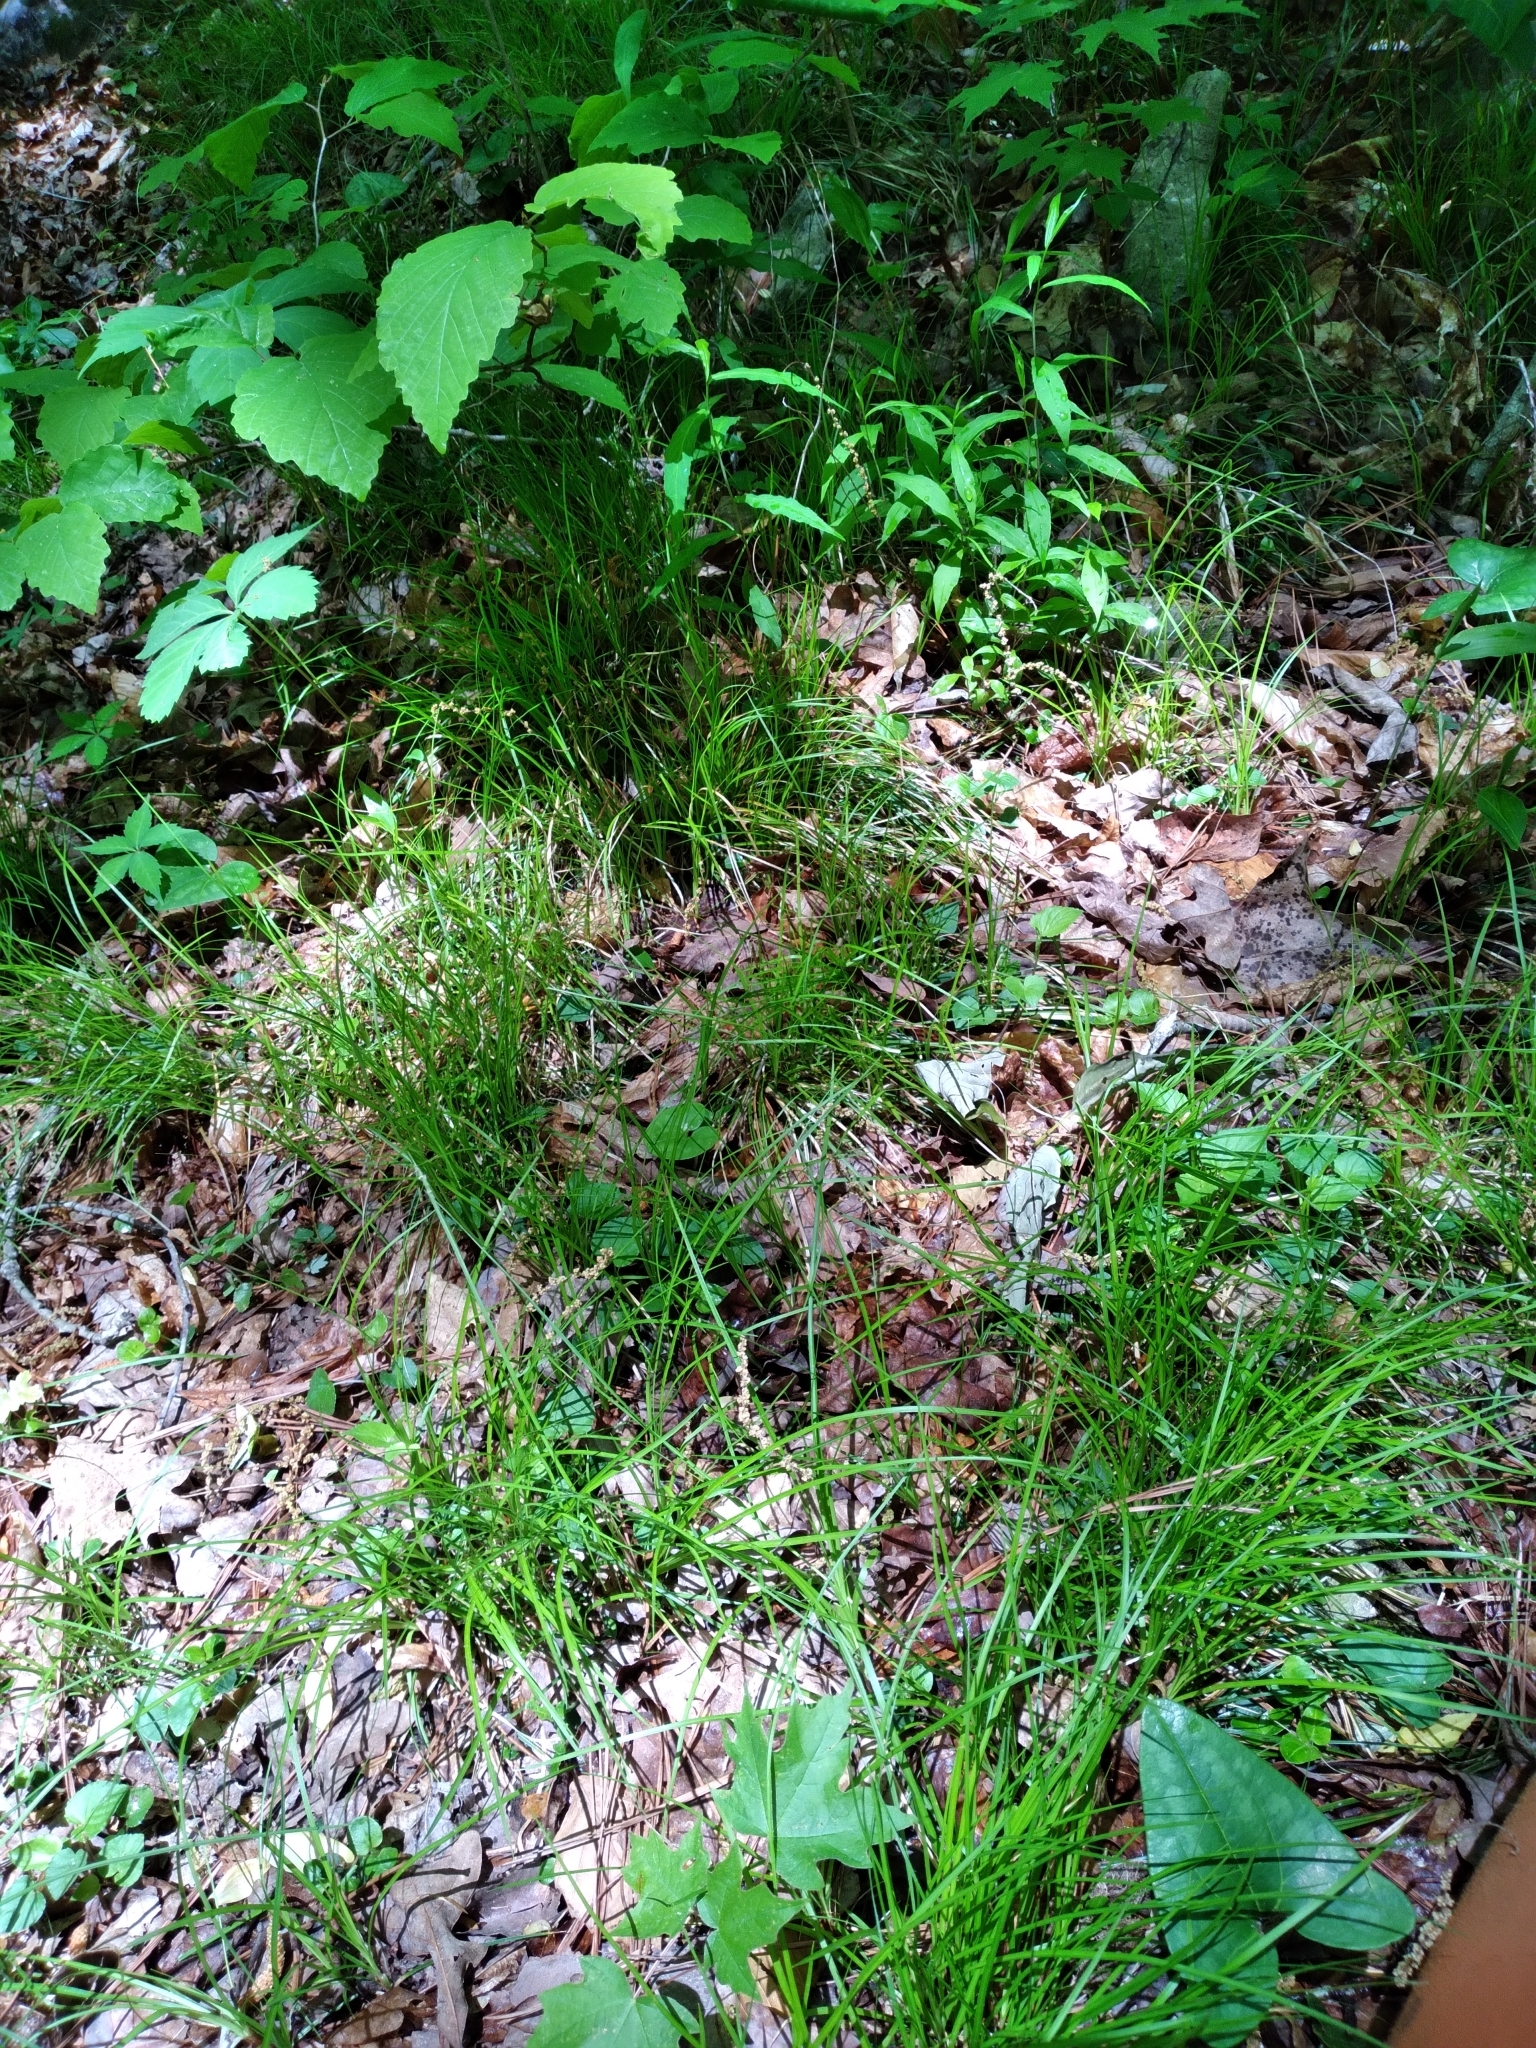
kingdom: Plantae
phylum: Tracheophyta
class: Liliopsida
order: Poales
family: Cyperaceae
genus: Carex
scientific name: Carex austrolucorum
